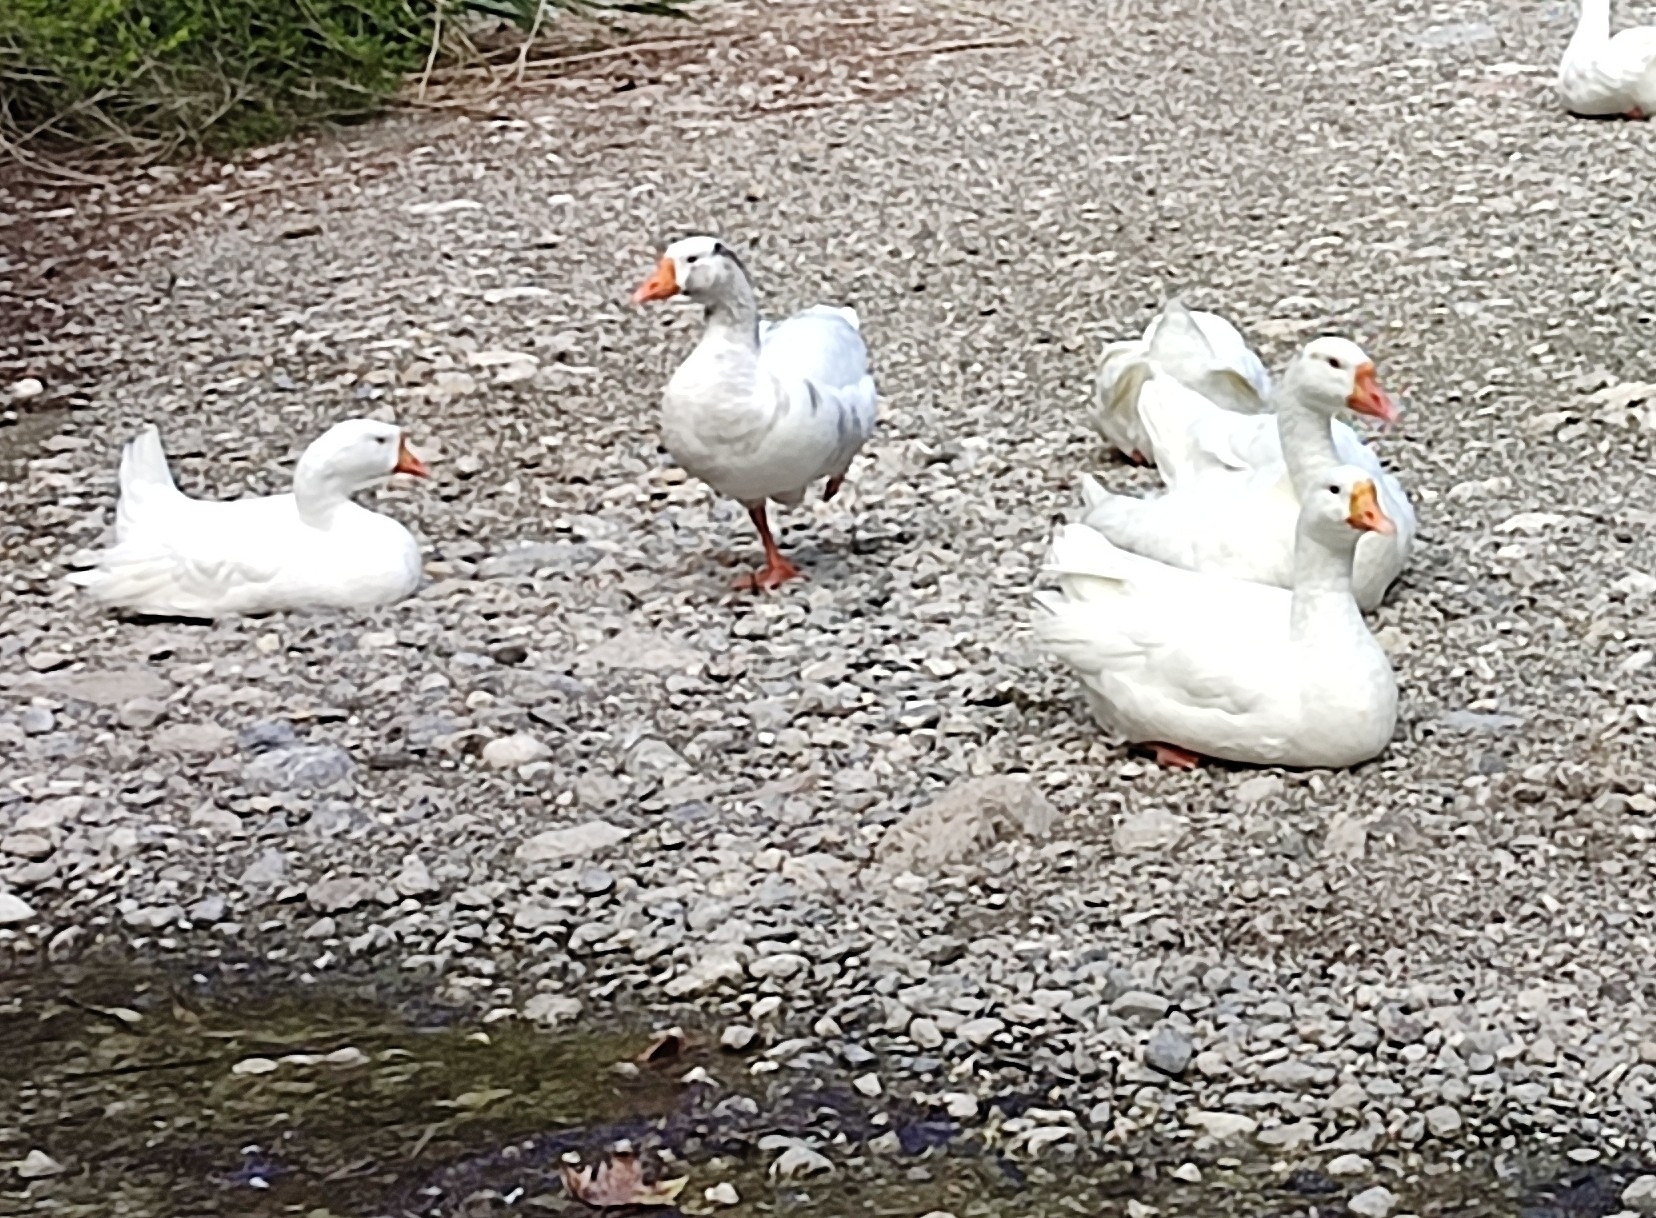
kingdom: Animalia
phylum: Chordata
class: Aves
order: Anseriformes
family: Anatidae
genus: Anser
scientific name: Anser anser
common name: Greylag goose
